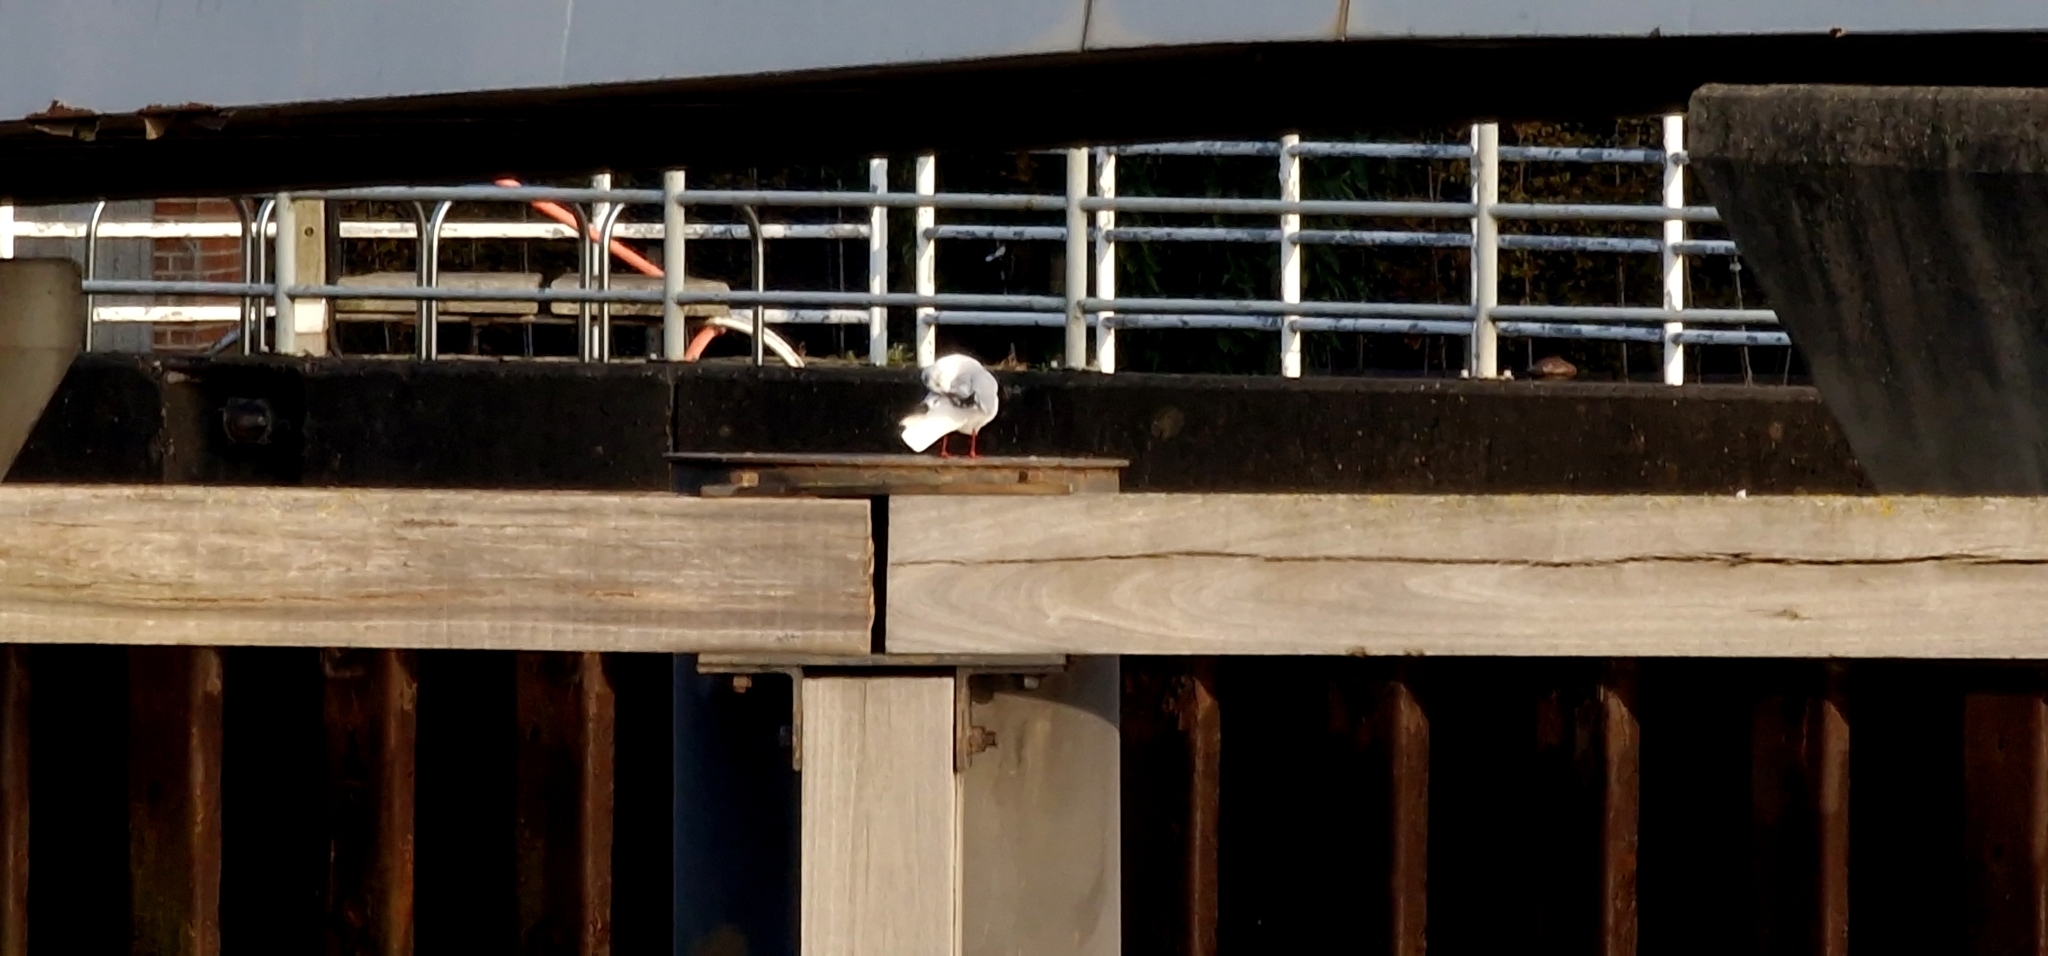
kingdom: Animalia
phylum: Chordata
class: Aves
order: Charadriiformes
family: Laridae
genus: Chroicocephalus
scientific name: Chroicocephalus ridibundus
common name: Black-headed gull
